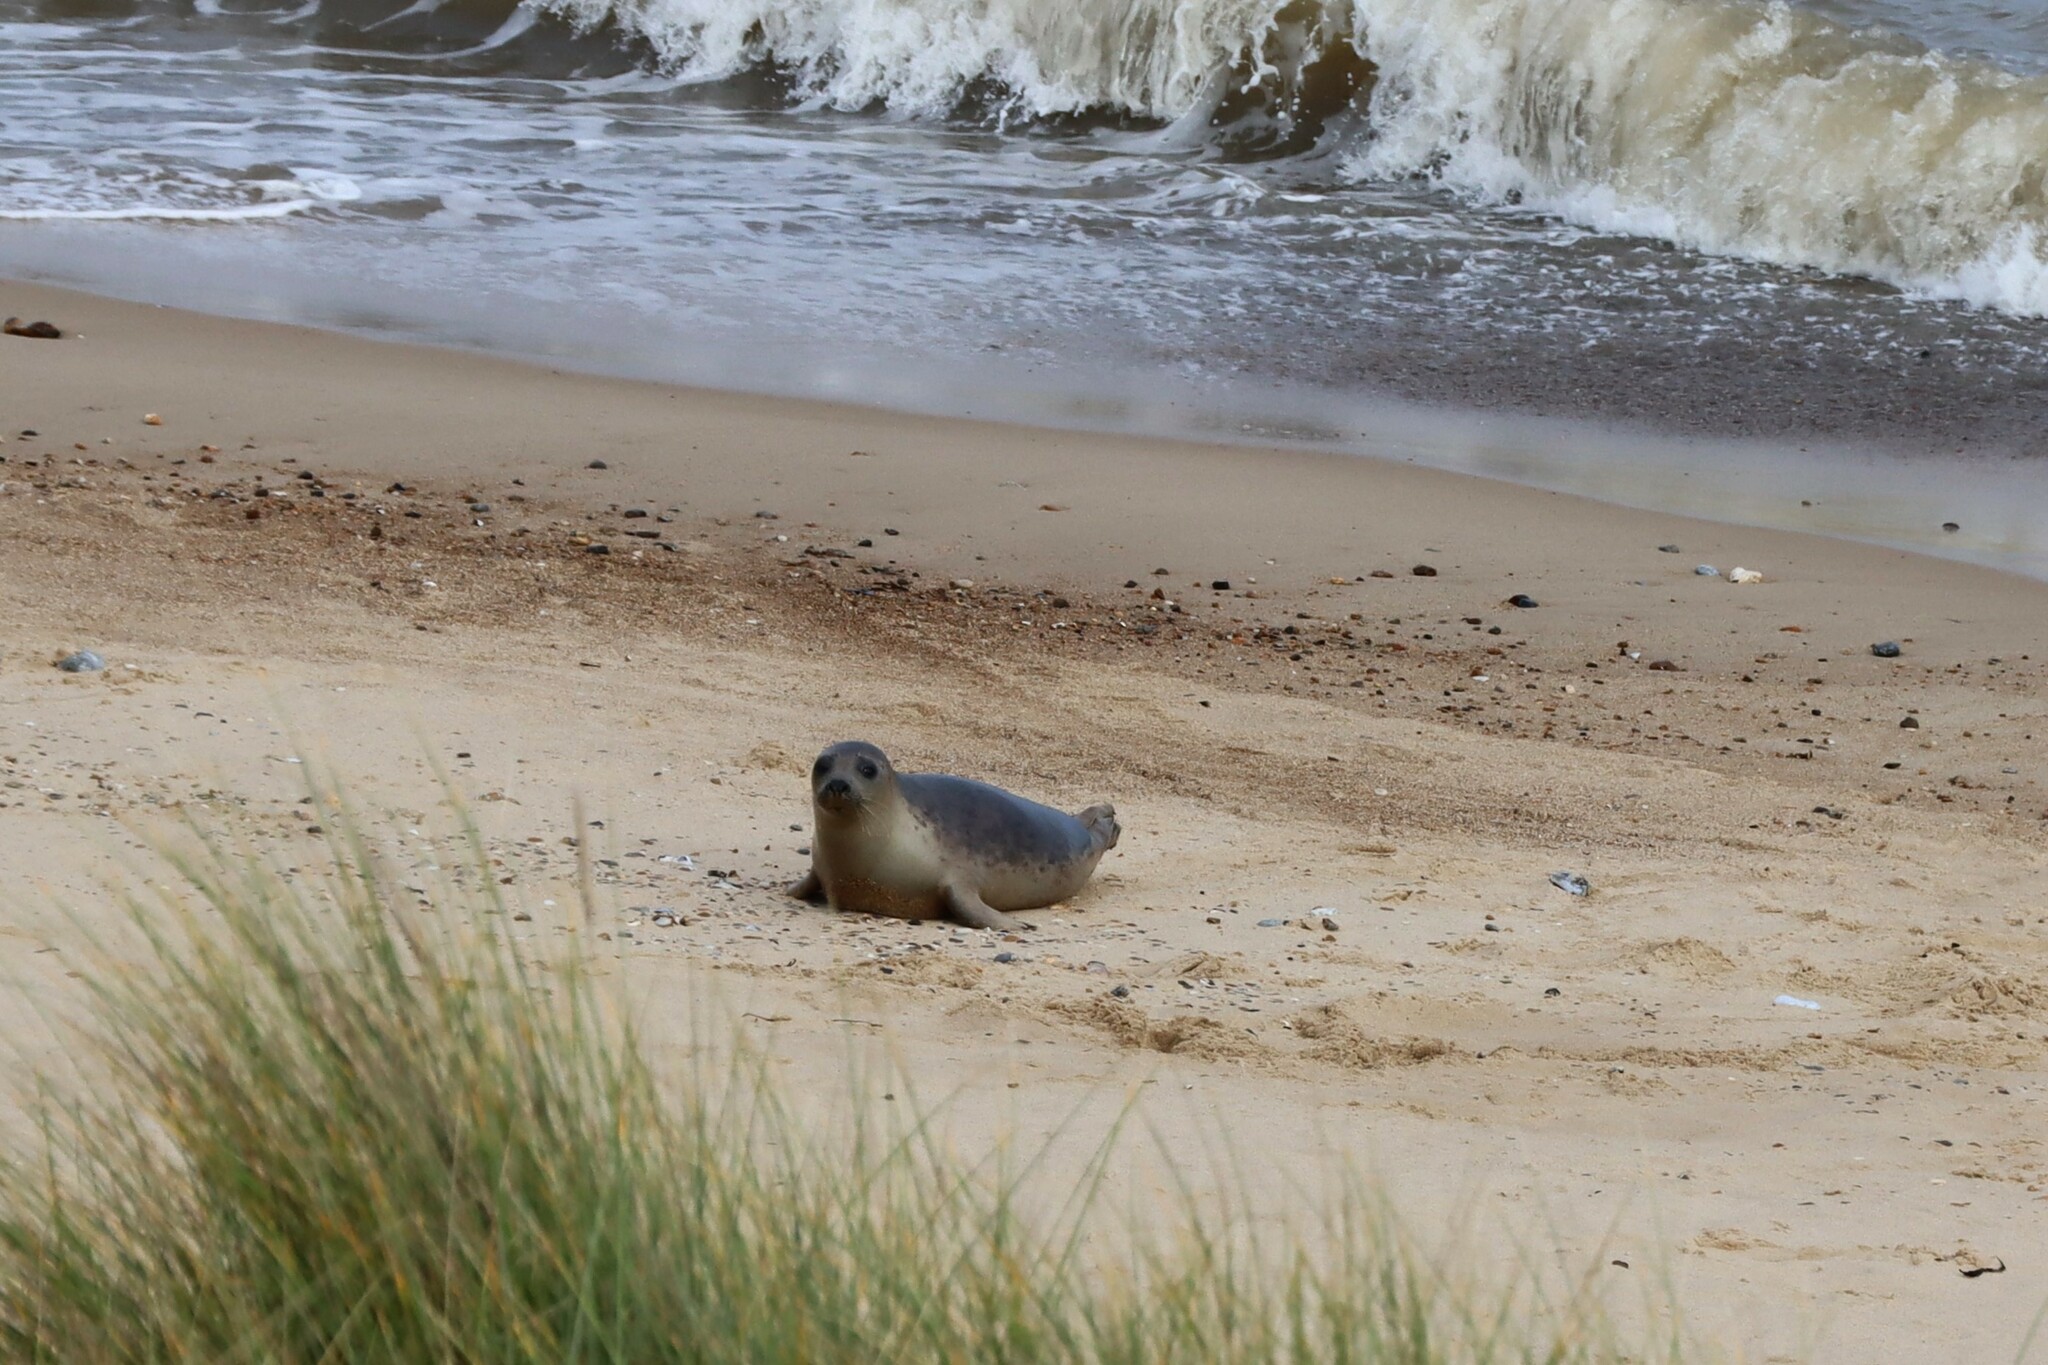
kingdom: Animalia
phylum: Chordata
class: Mammalia
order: Carnivora
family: Phocidae
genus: Halichoerus
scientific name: Halichoerus grypus
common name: Grey seal
